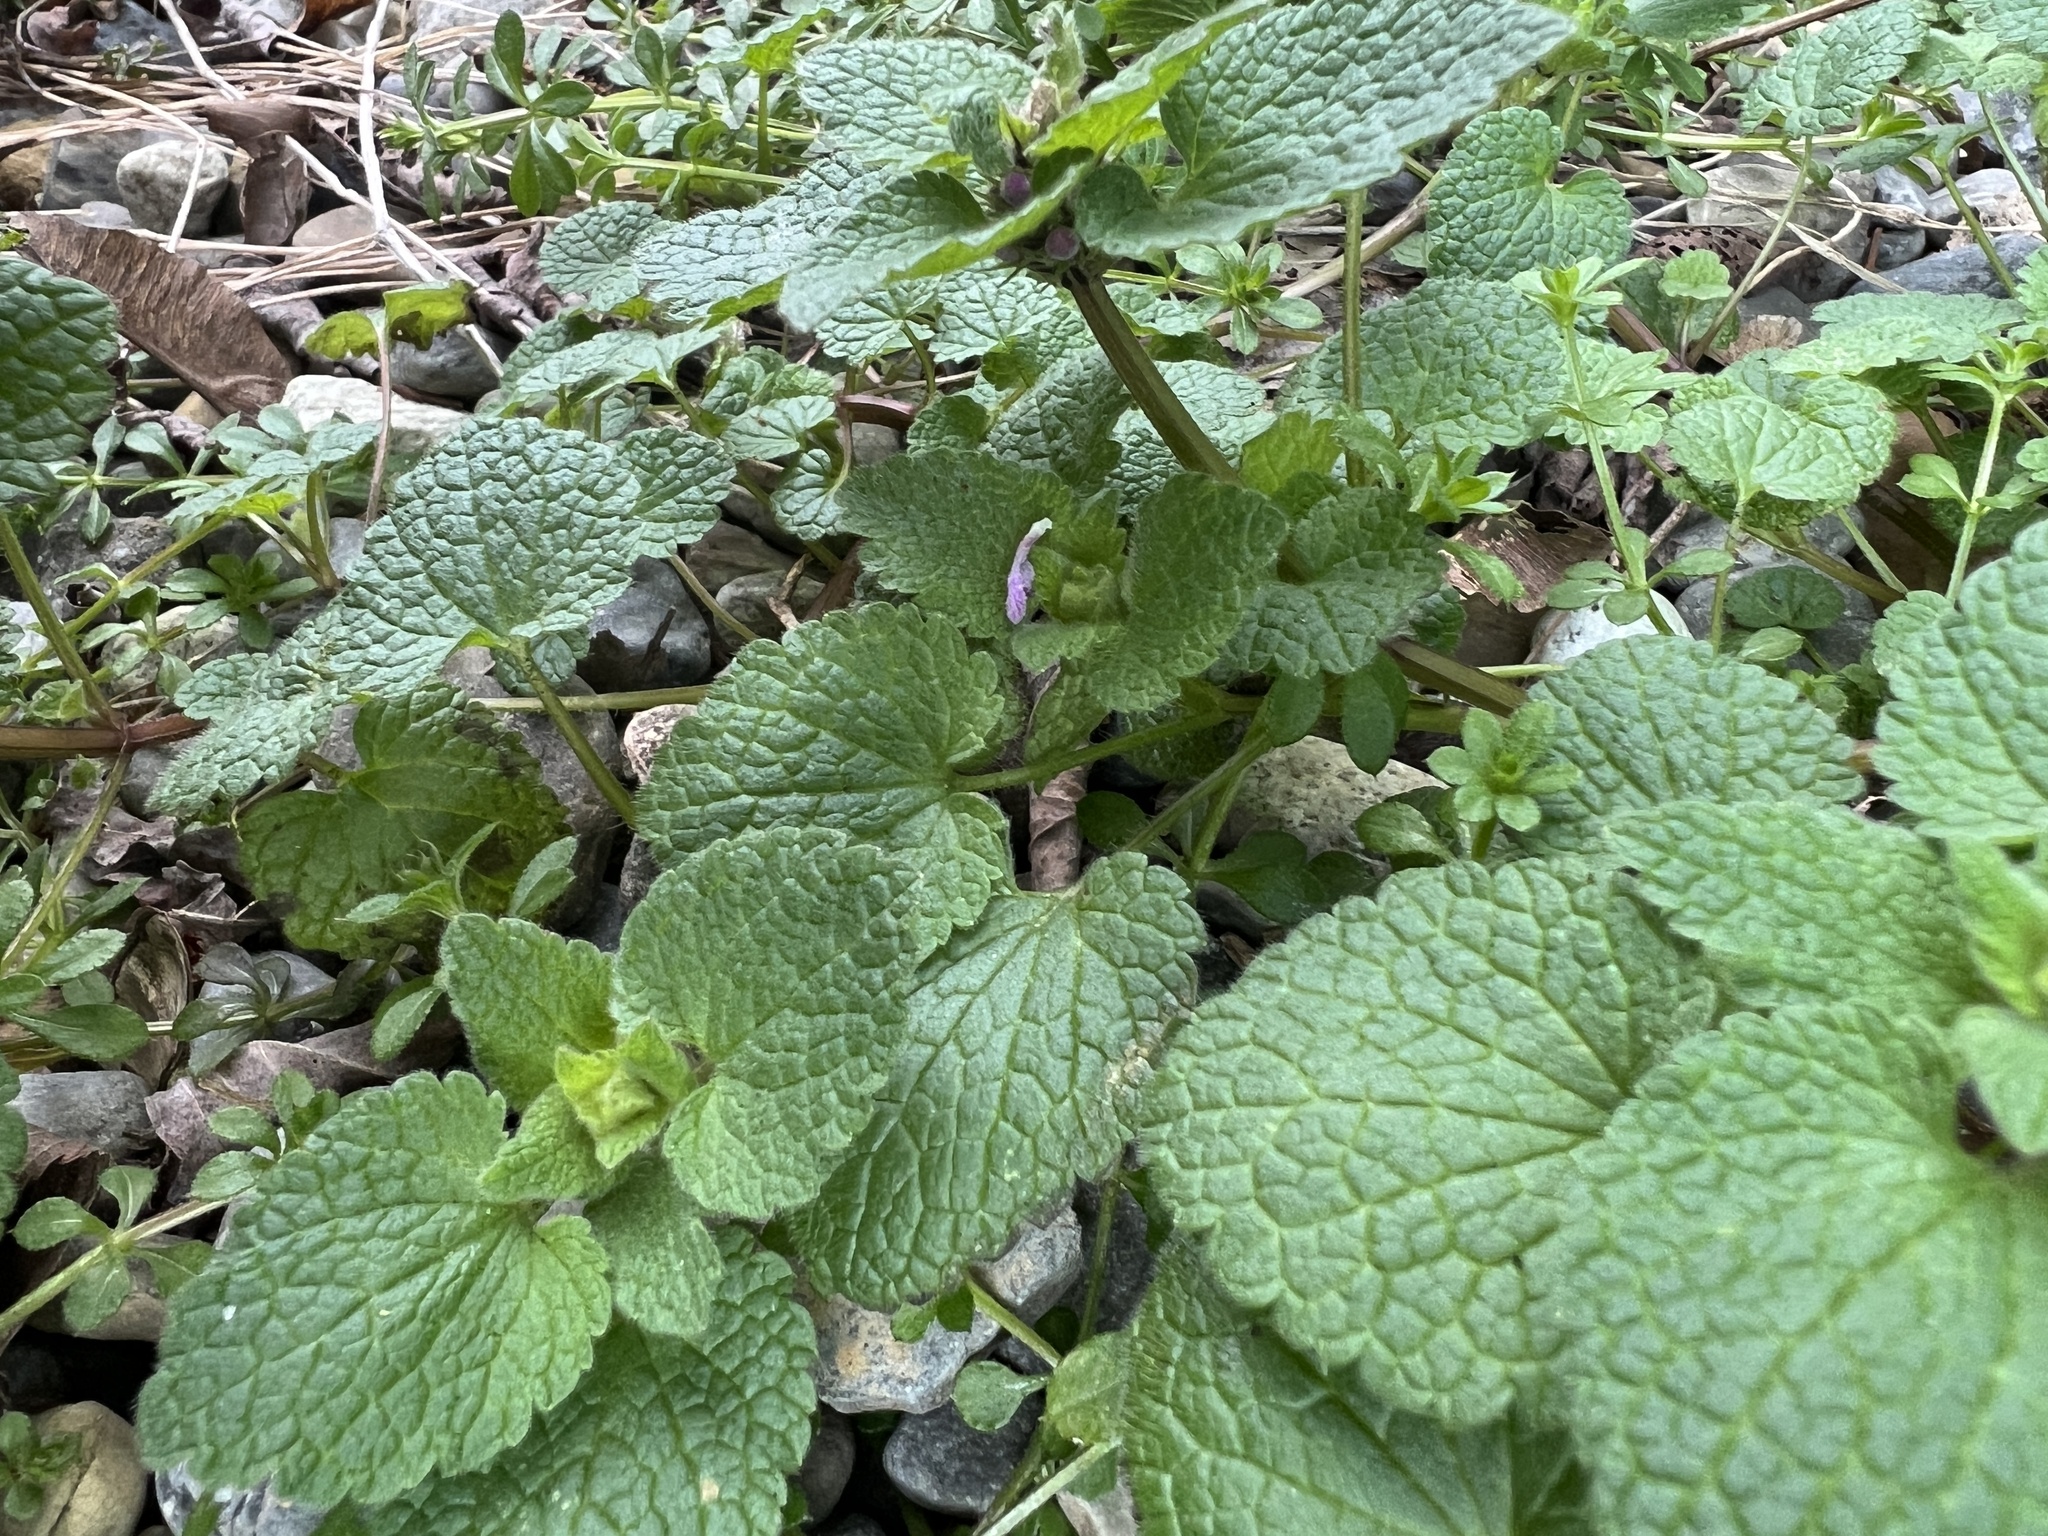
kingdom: Plantae
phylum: Tracheophyta
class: Magnoliopsida
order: Lamiales
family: Lamiaceae
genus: Lamium
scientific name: Lamium purpureum
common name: Red dead-nettle
